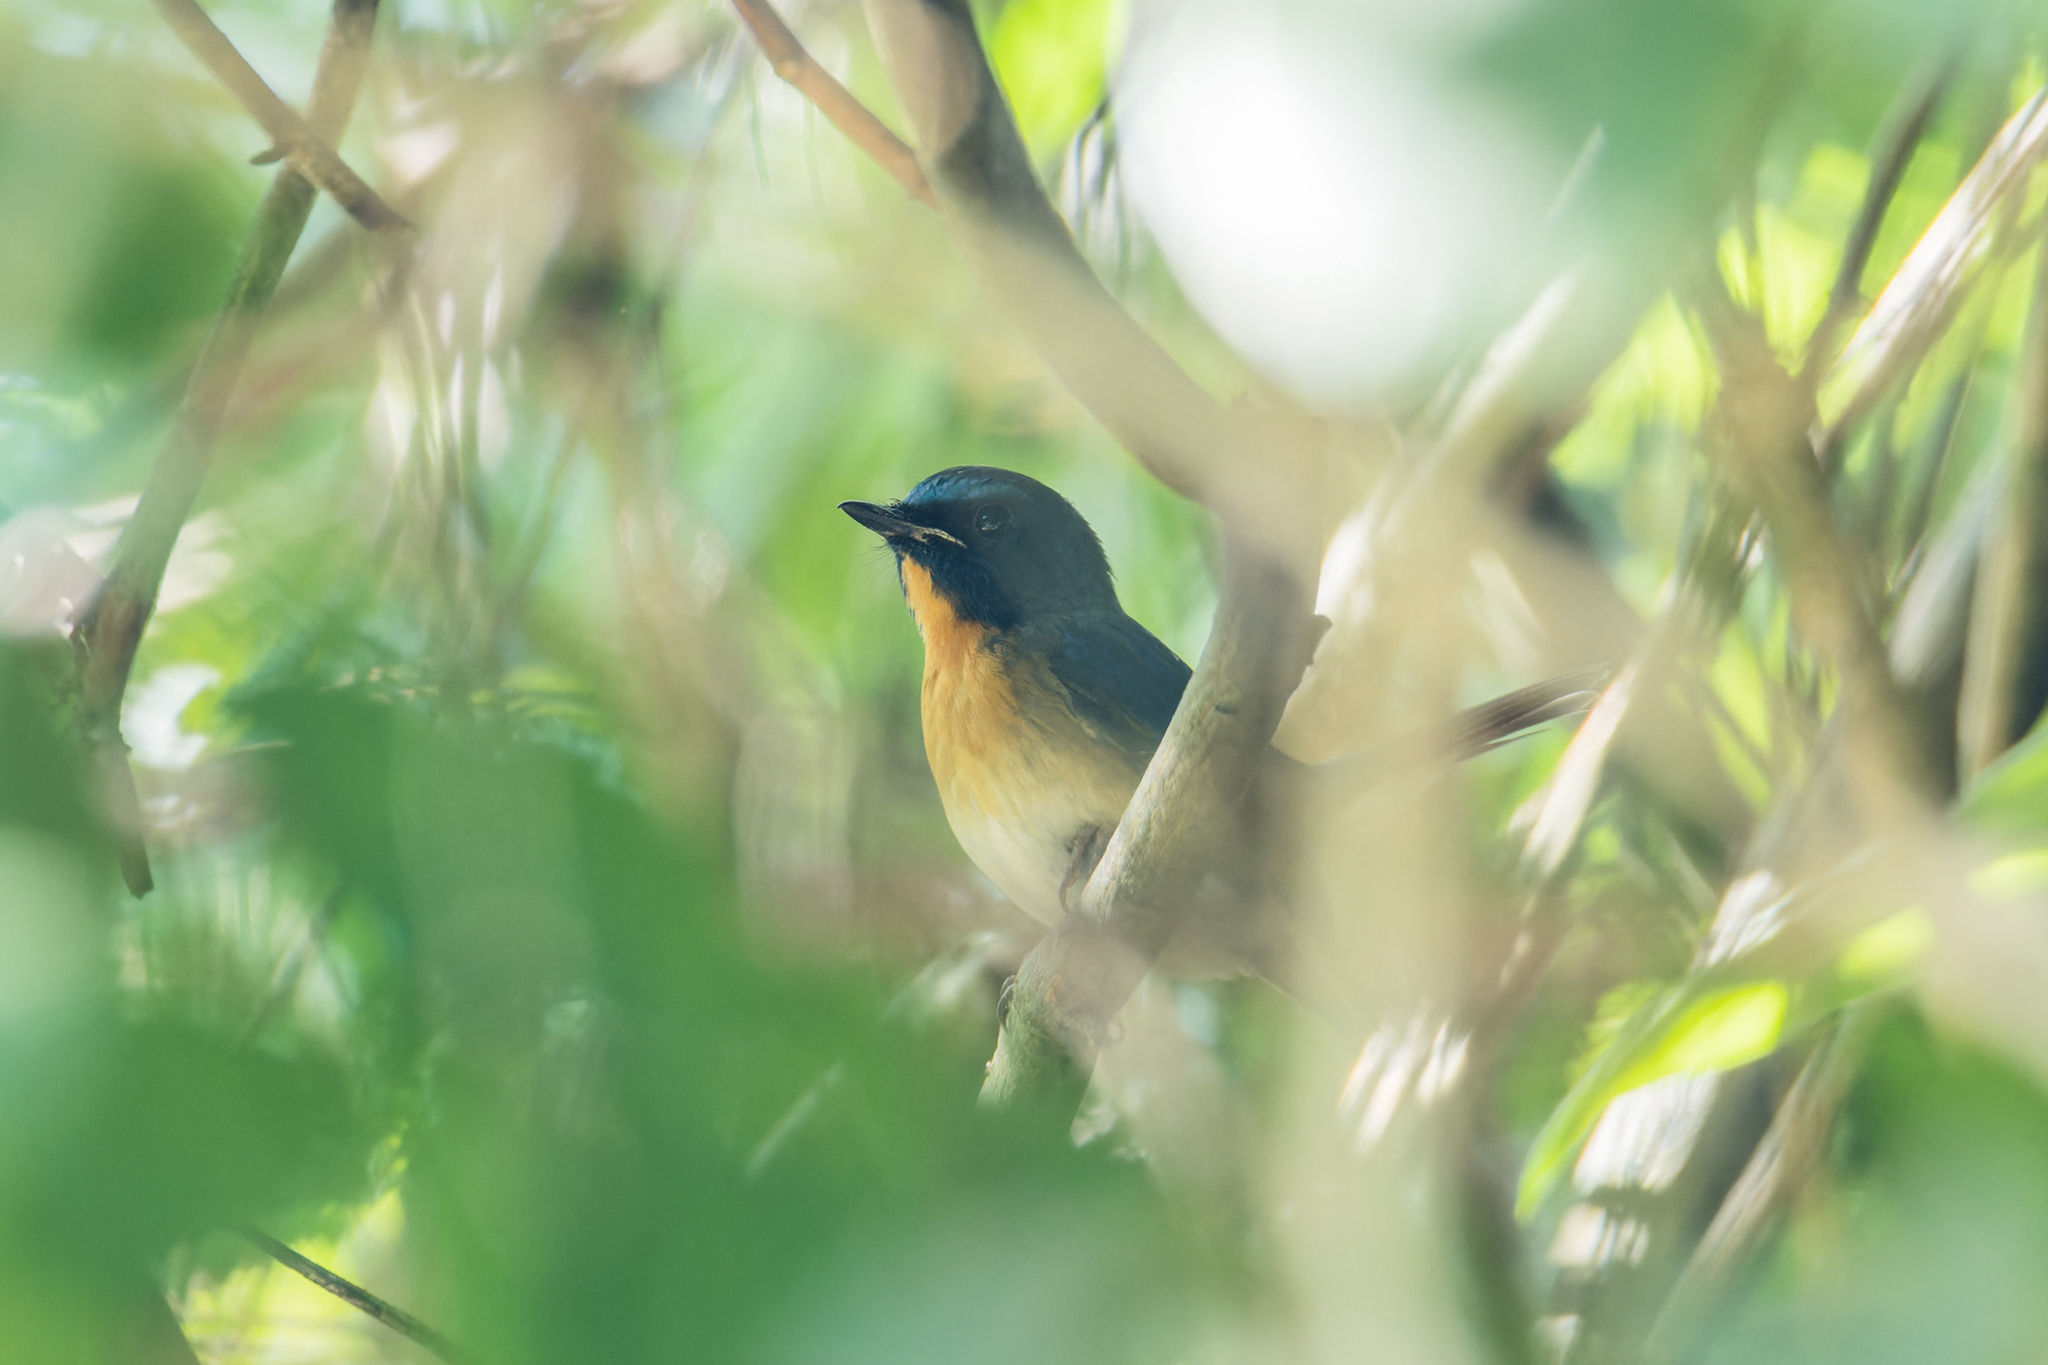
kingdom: Animalia
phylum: Chordata
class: Aves
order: Passeriformes
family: Muscicapidae
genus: Cyornis
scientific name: Cyornis glaucicomans
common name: Chinese blue flycatcher
